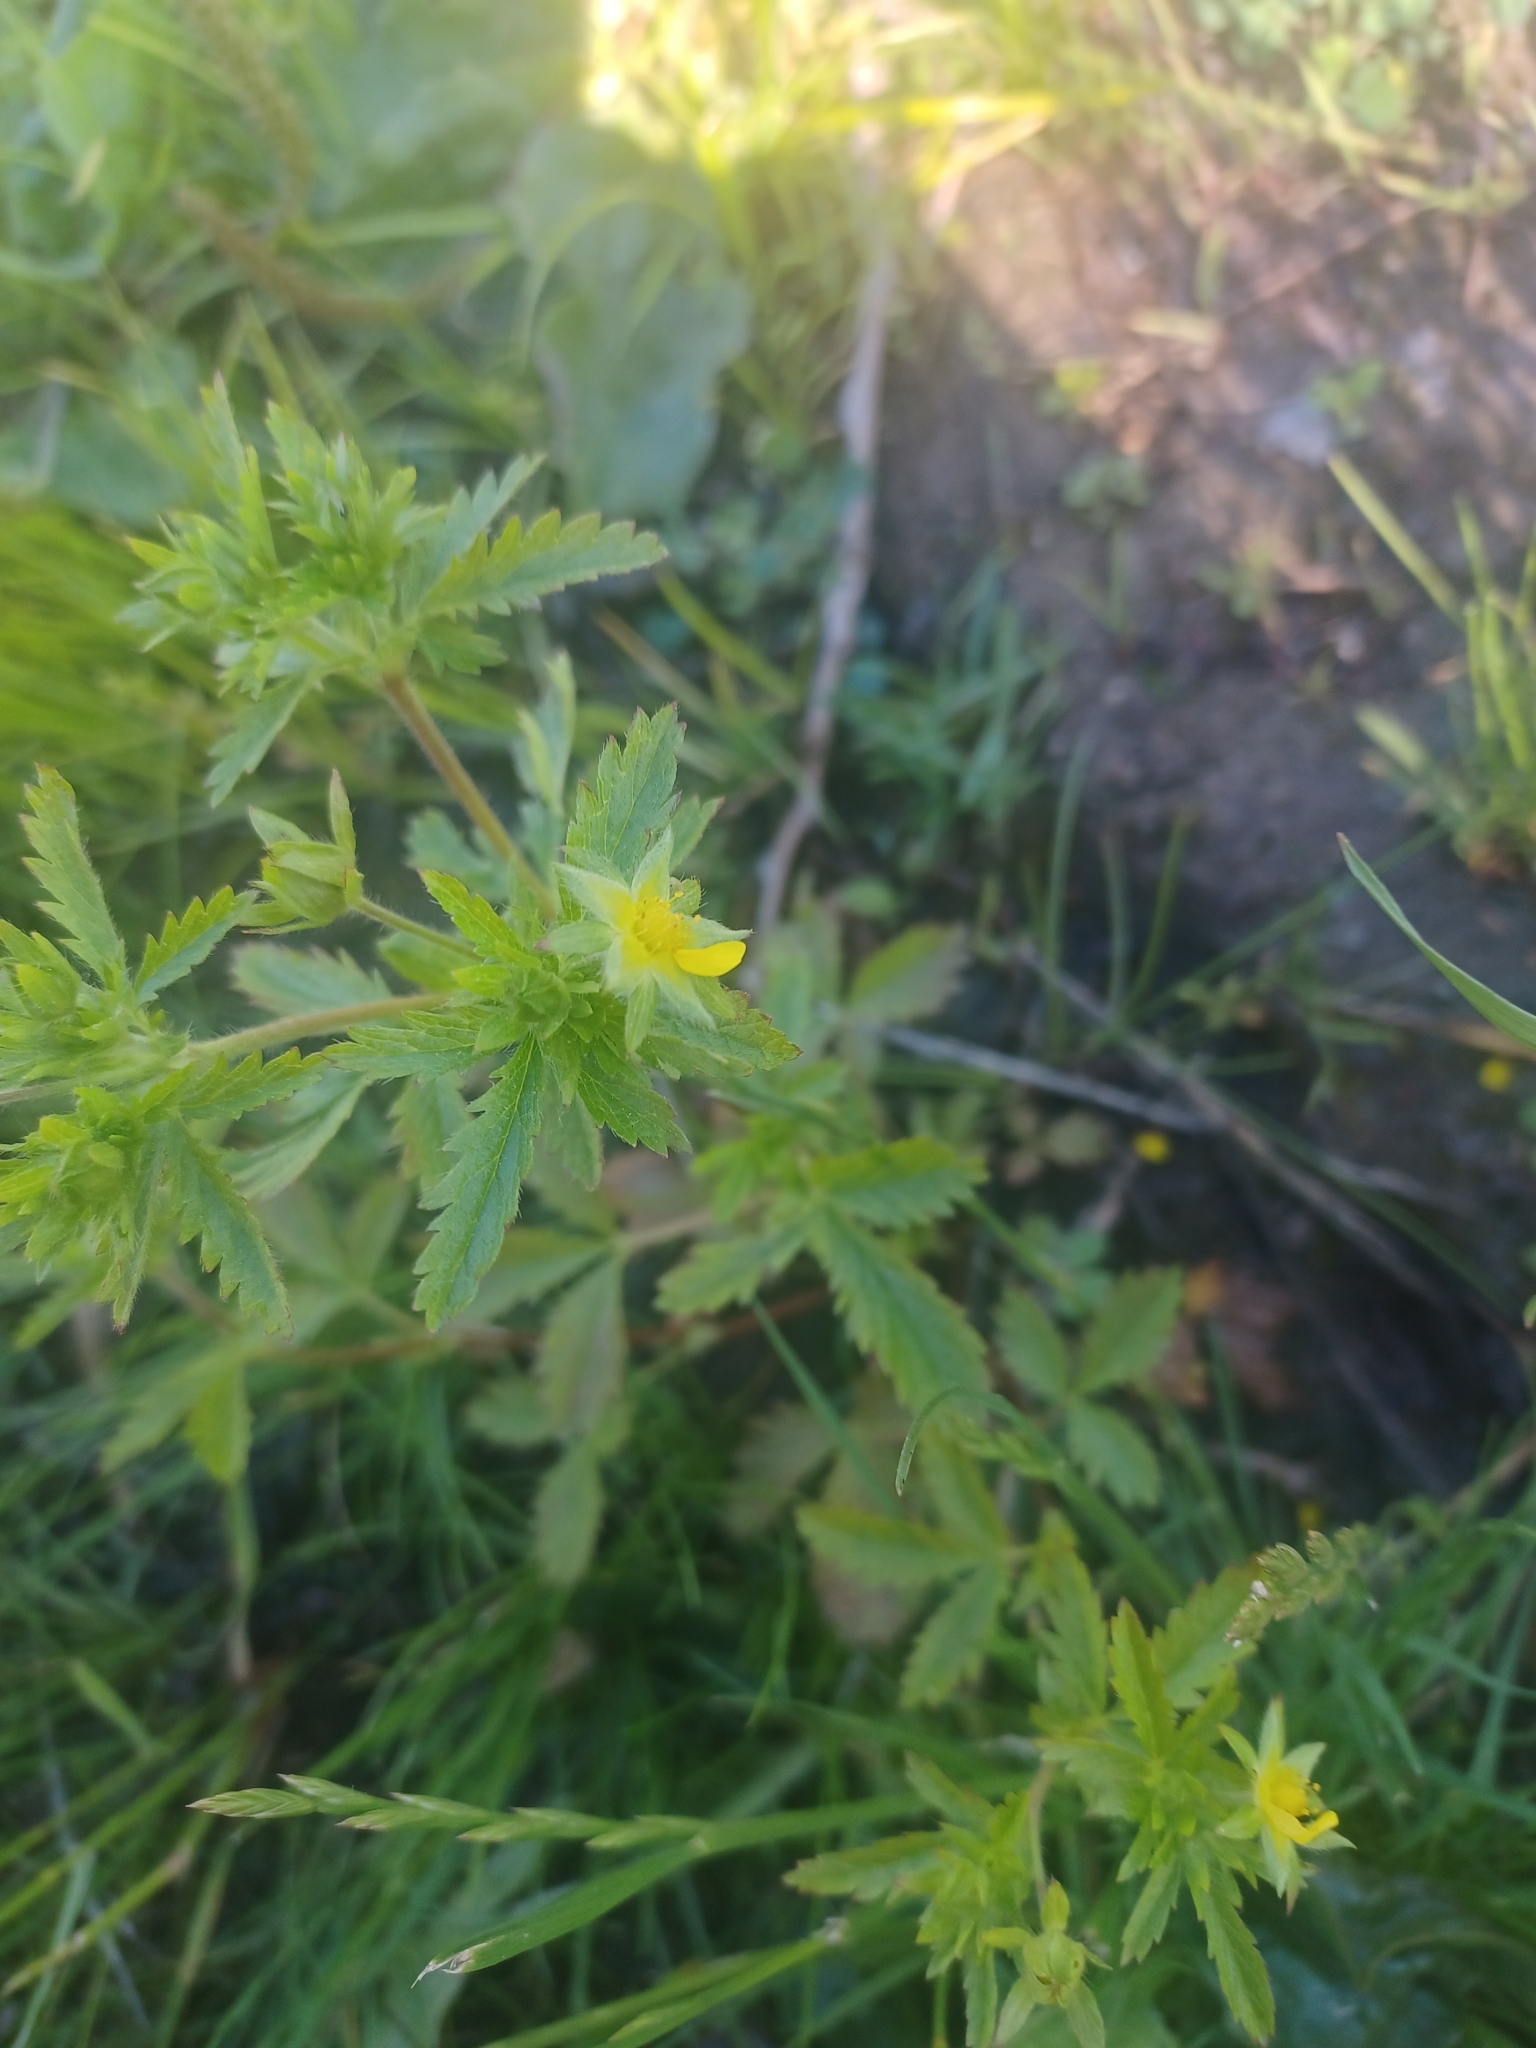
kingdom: Plantae
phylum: Tracheophyta
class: Magnoliopsida
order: Rosales
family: Rosaceae
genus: Potentilla
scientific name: Potentilla norvegica
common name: Ternate-leaved cinquefoil
